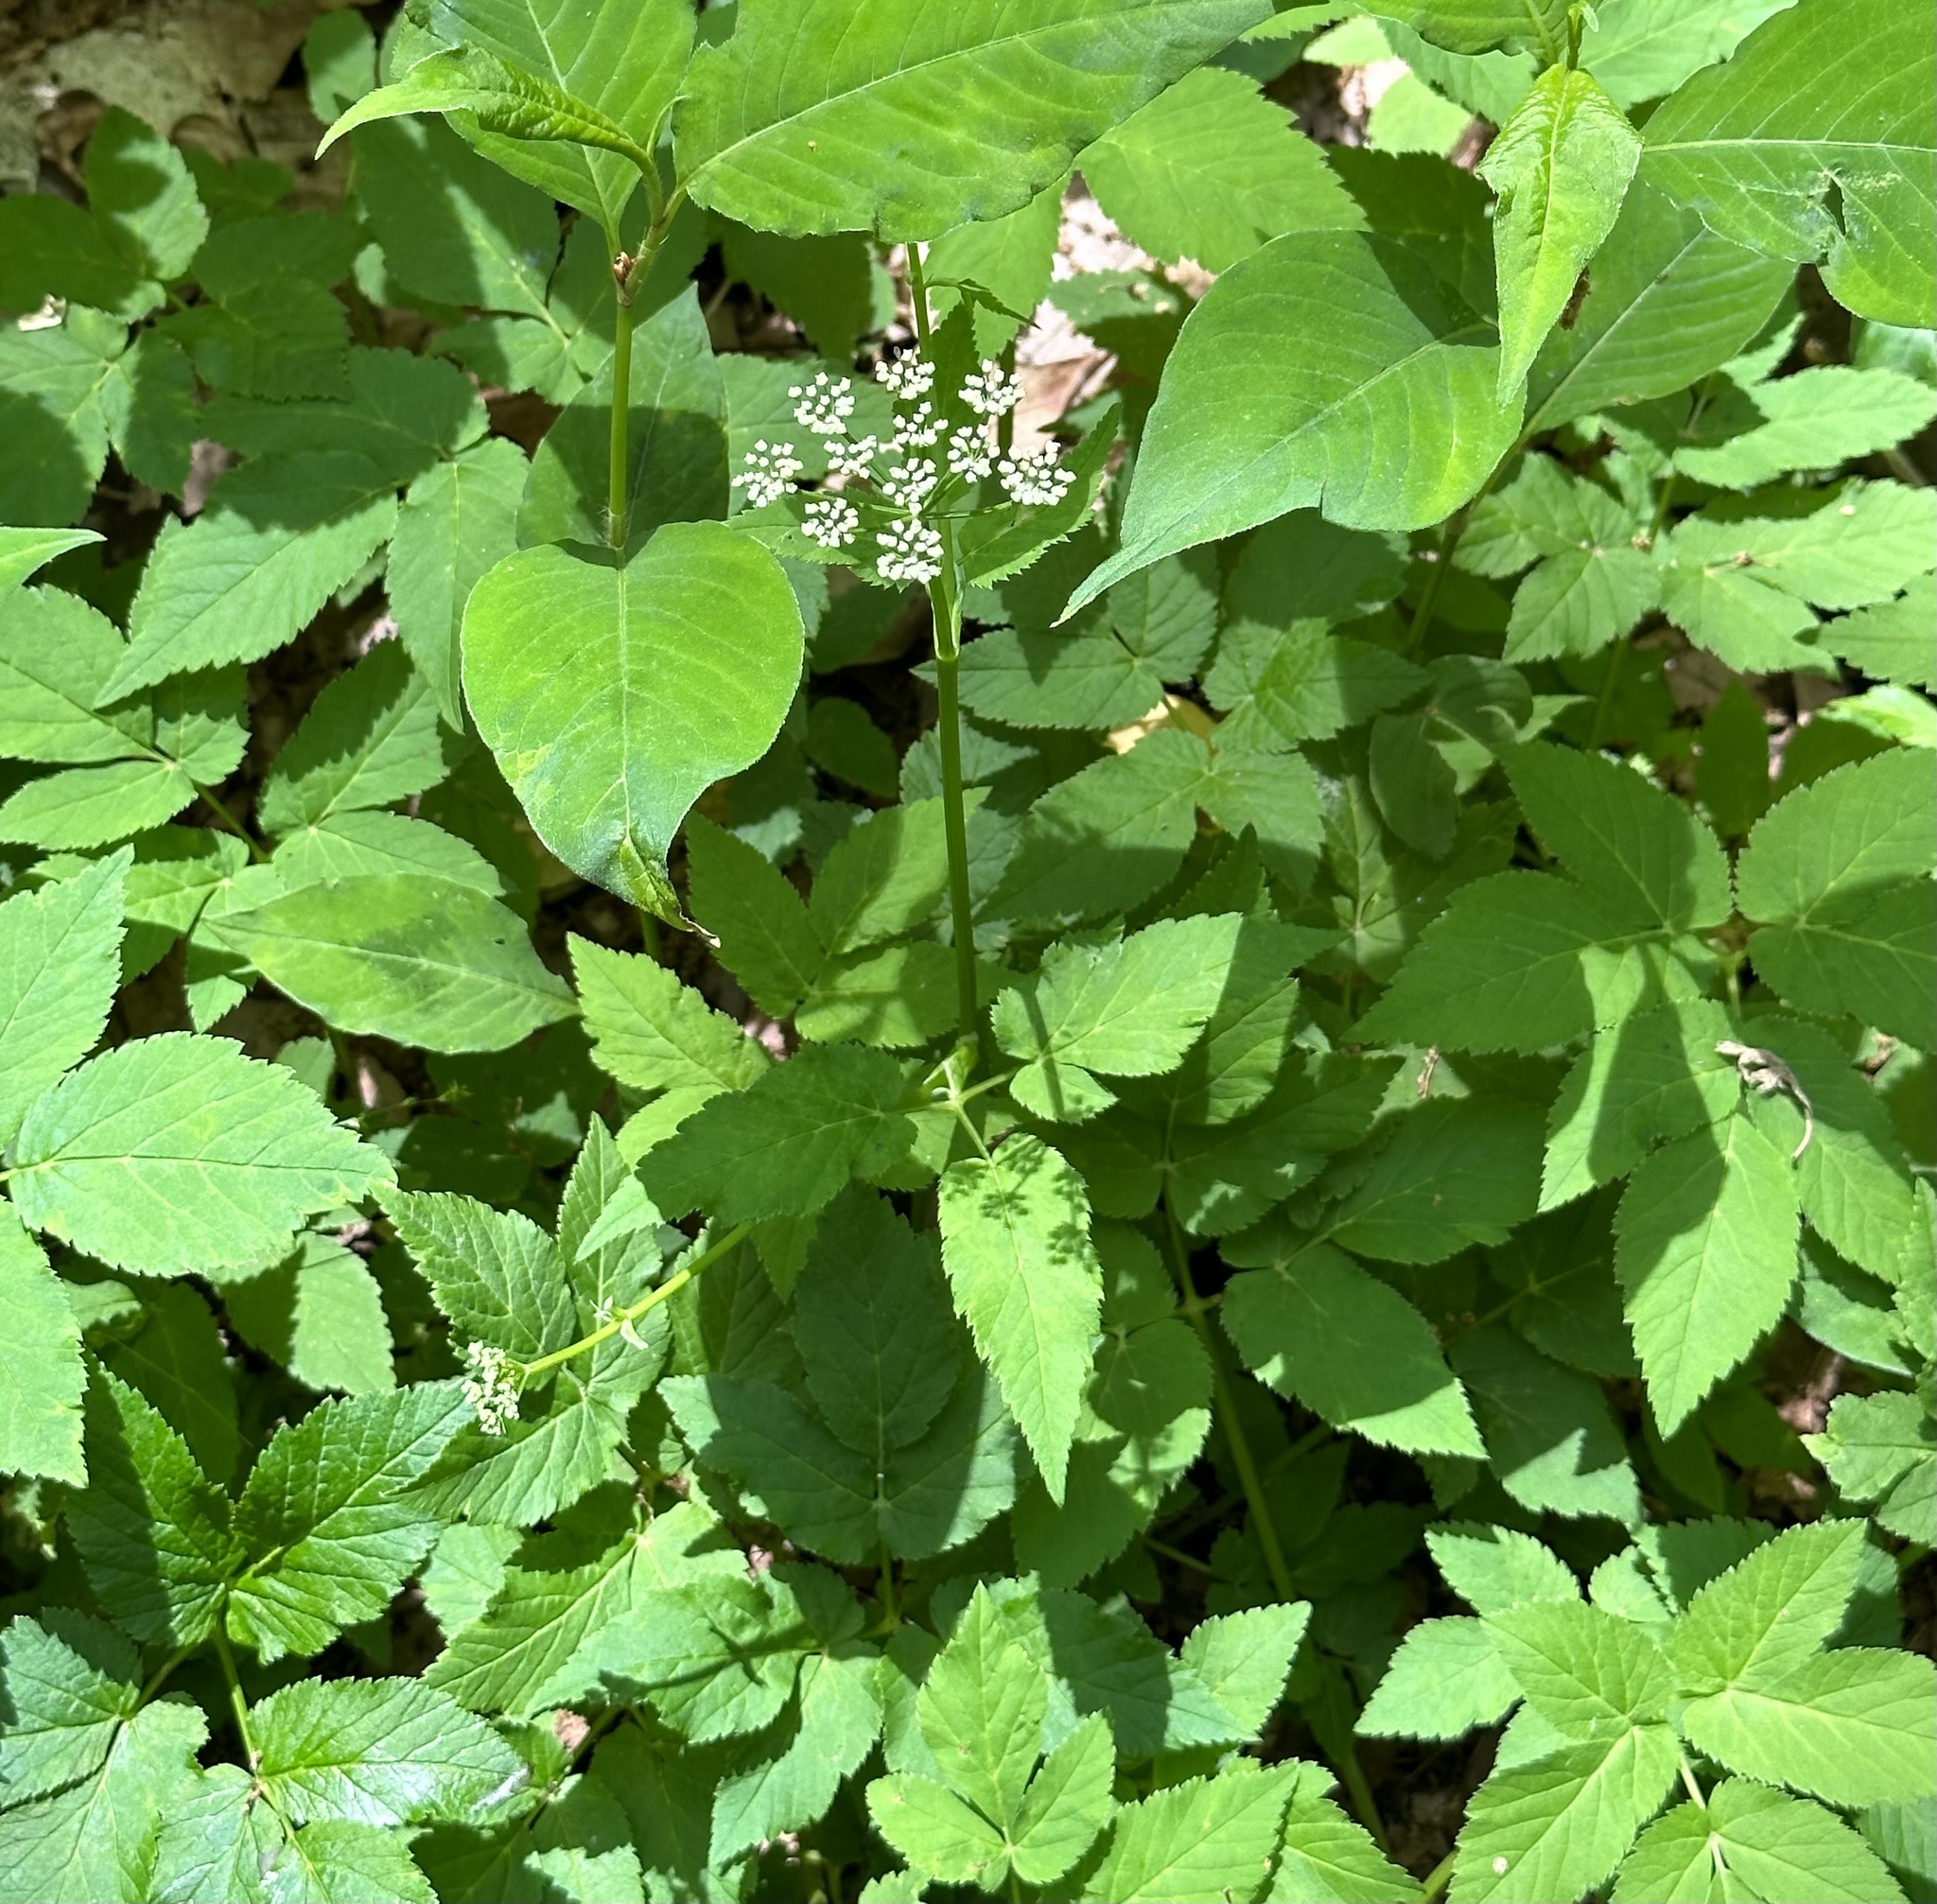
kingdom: Plantae
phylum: Tracheophyta
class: Magnoliopsida
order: Apiales
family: Apiaceae
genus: Aegopodium
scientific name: Aegopodium podagraria
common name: Ground-elder
